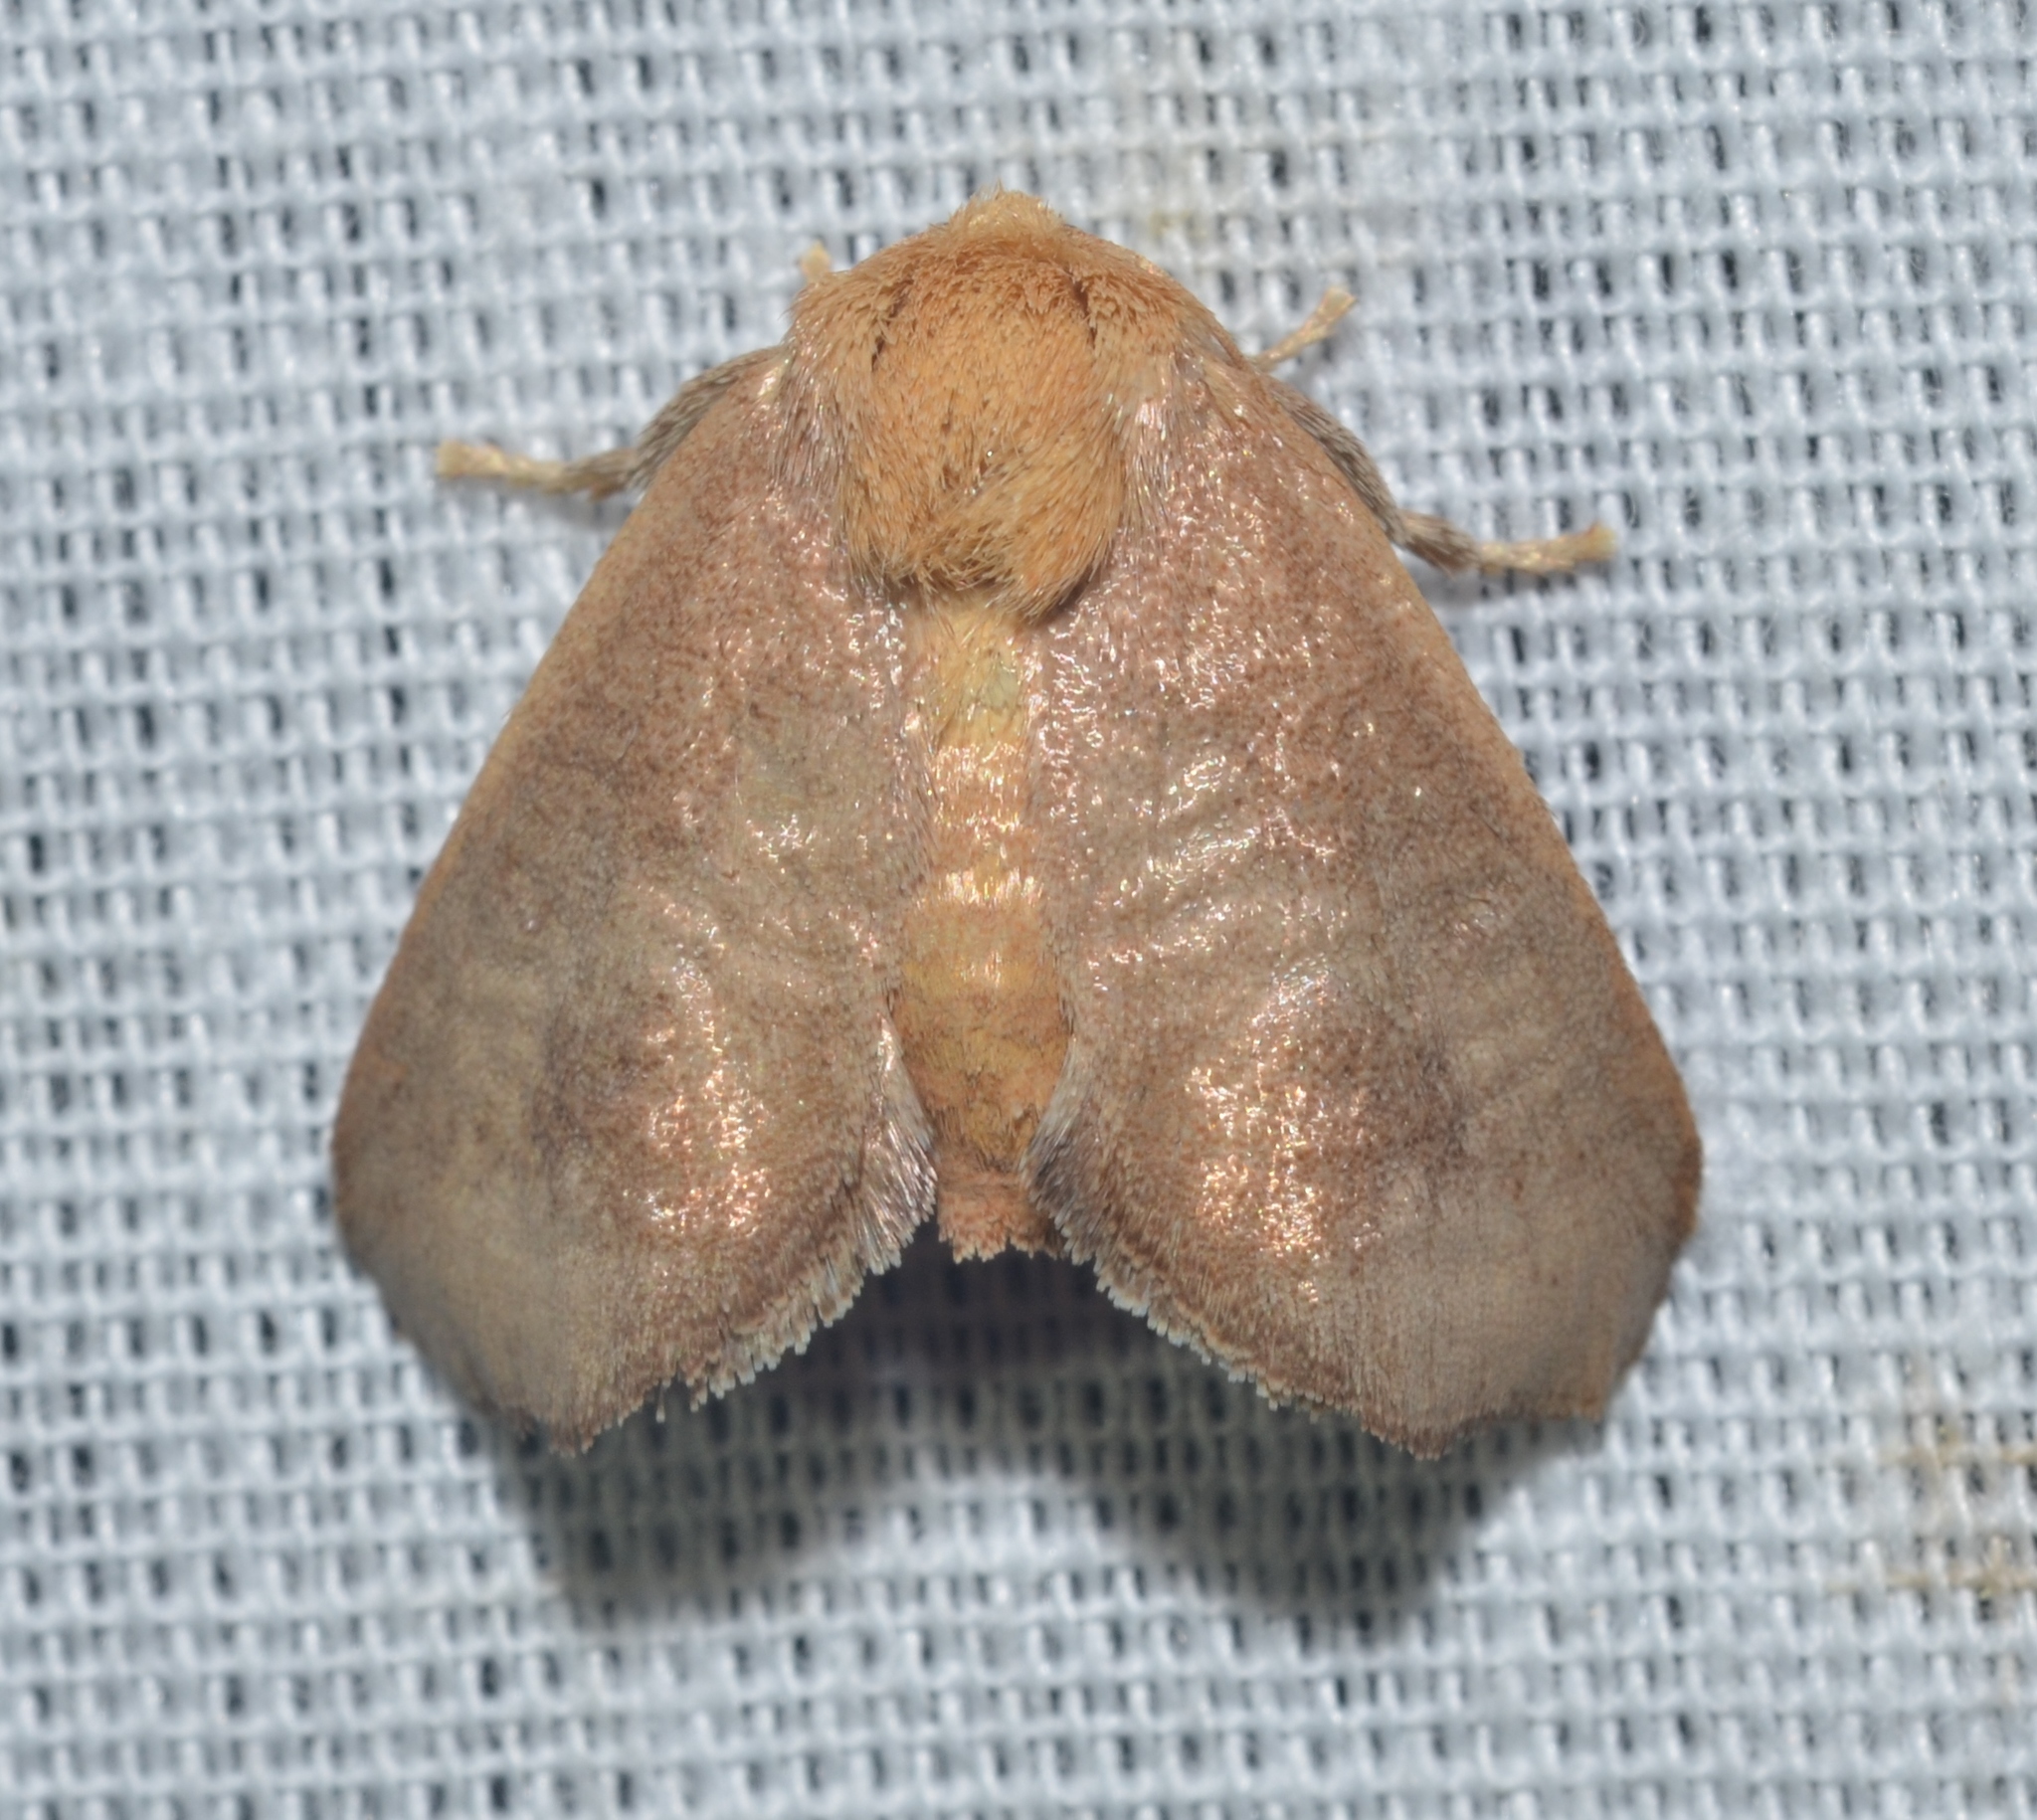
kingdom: Animalia
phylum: Arthropoda
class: Insecta
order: Lepidoptera
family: Limacodidae
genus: Isa
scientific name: Isa textula
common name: Crowned slug moth
